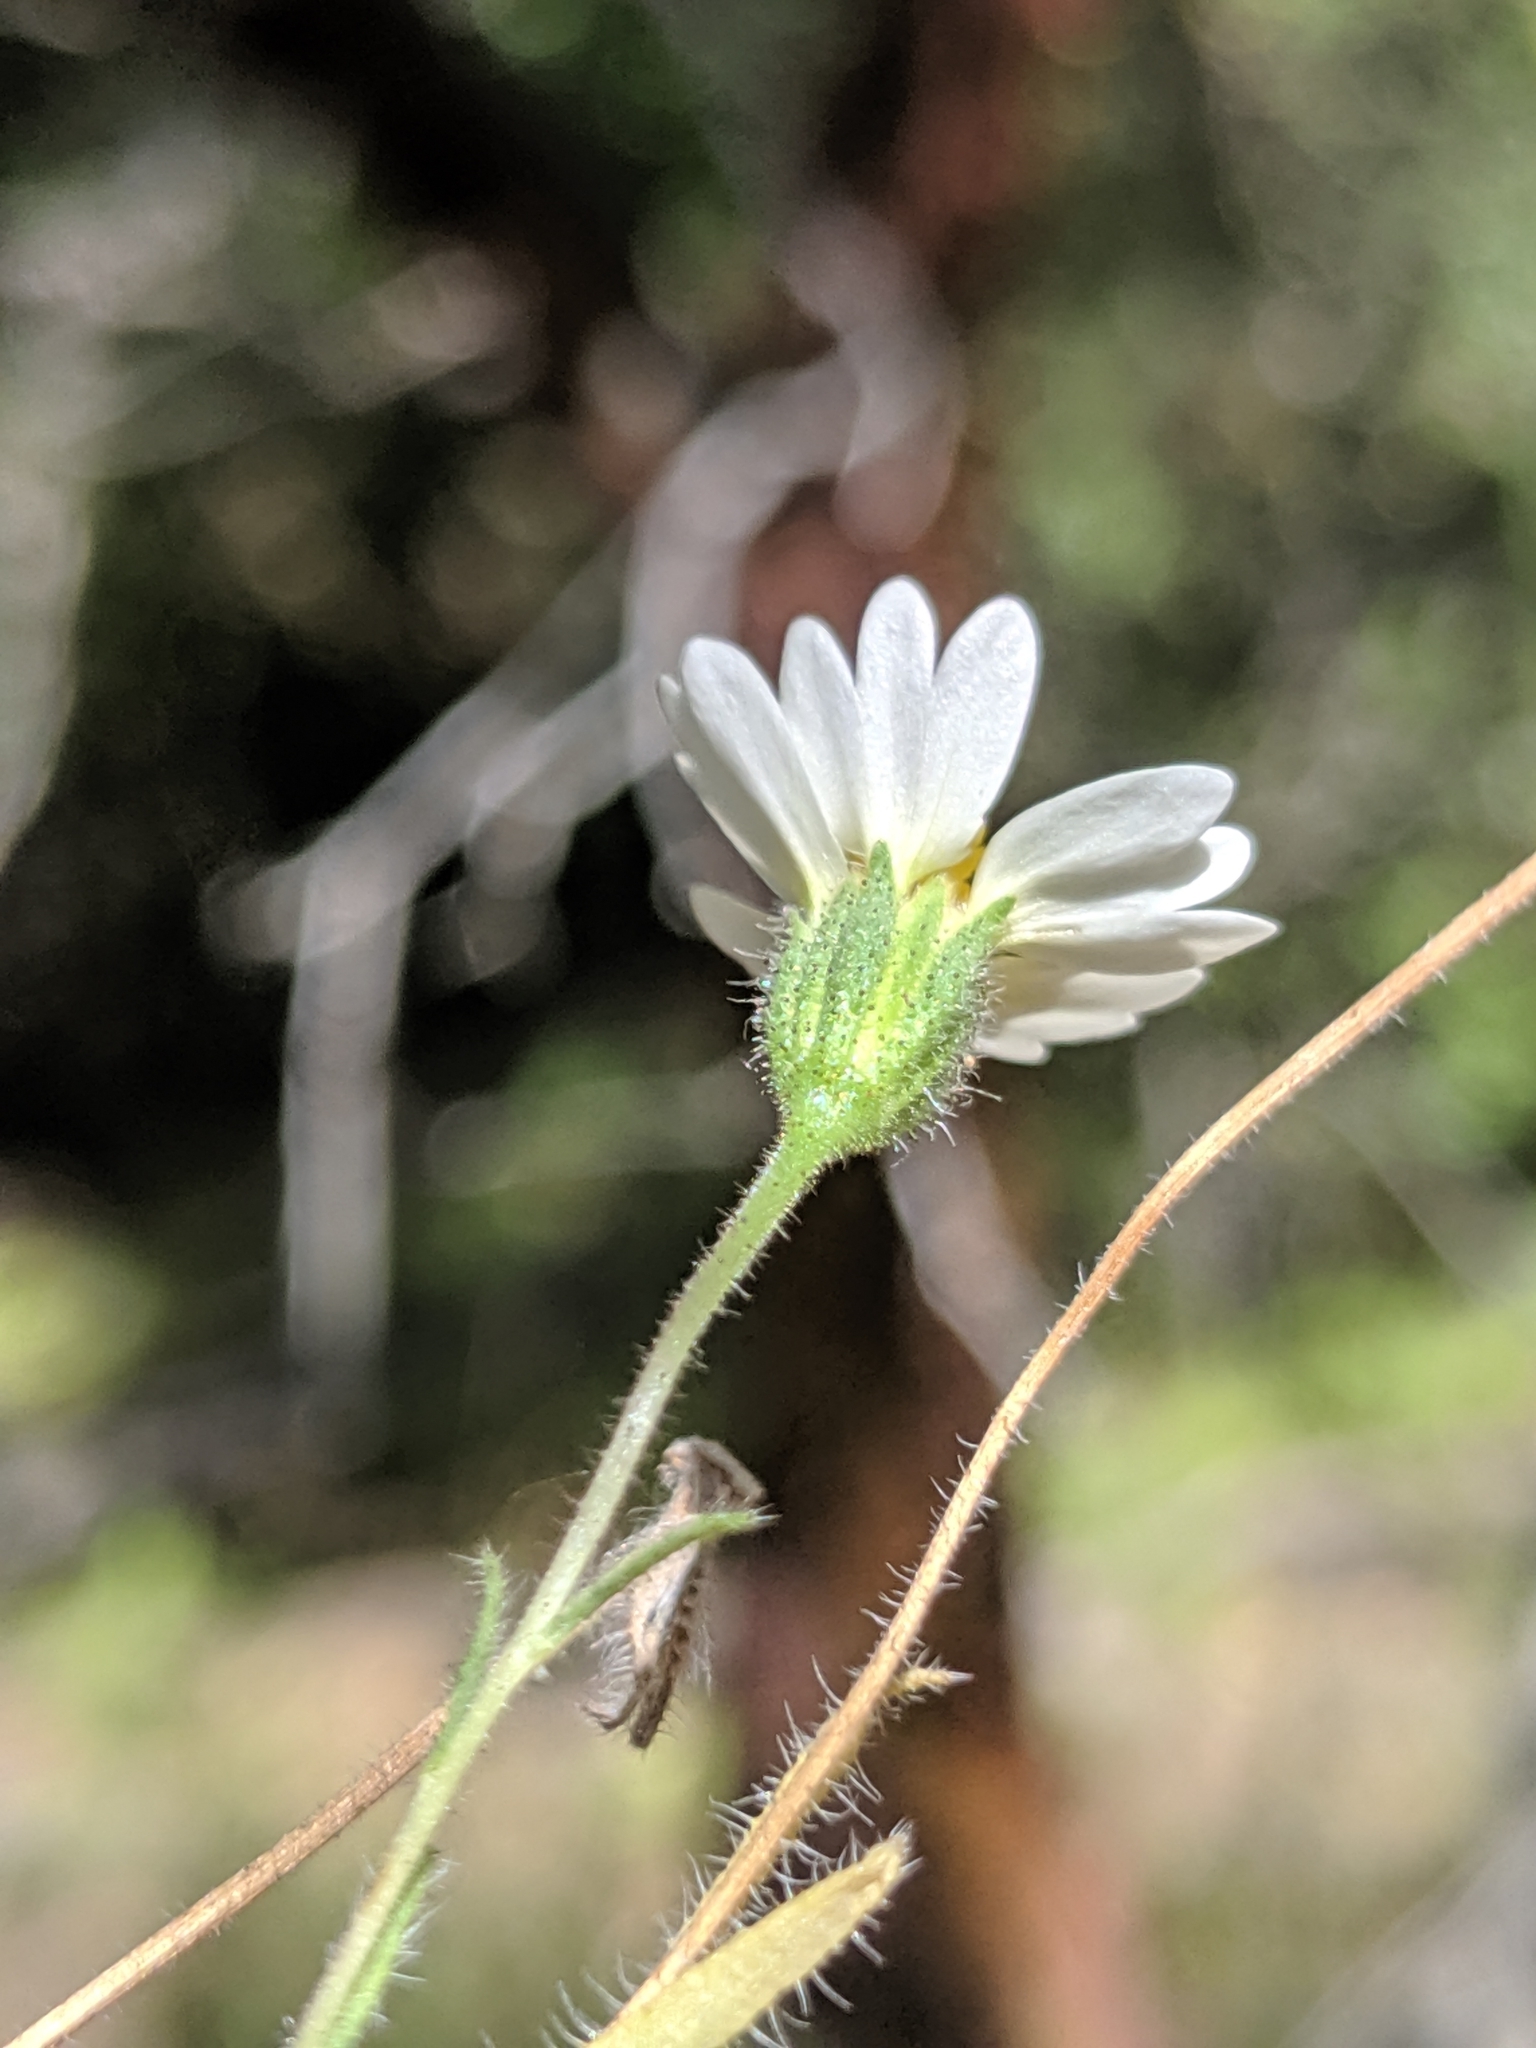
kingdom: Plantae
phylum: Tracheophyta
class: Magnoliopsida
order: Asterales
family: Asteraceae
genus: Layia
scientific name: Layia glandulosa
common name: White layia
